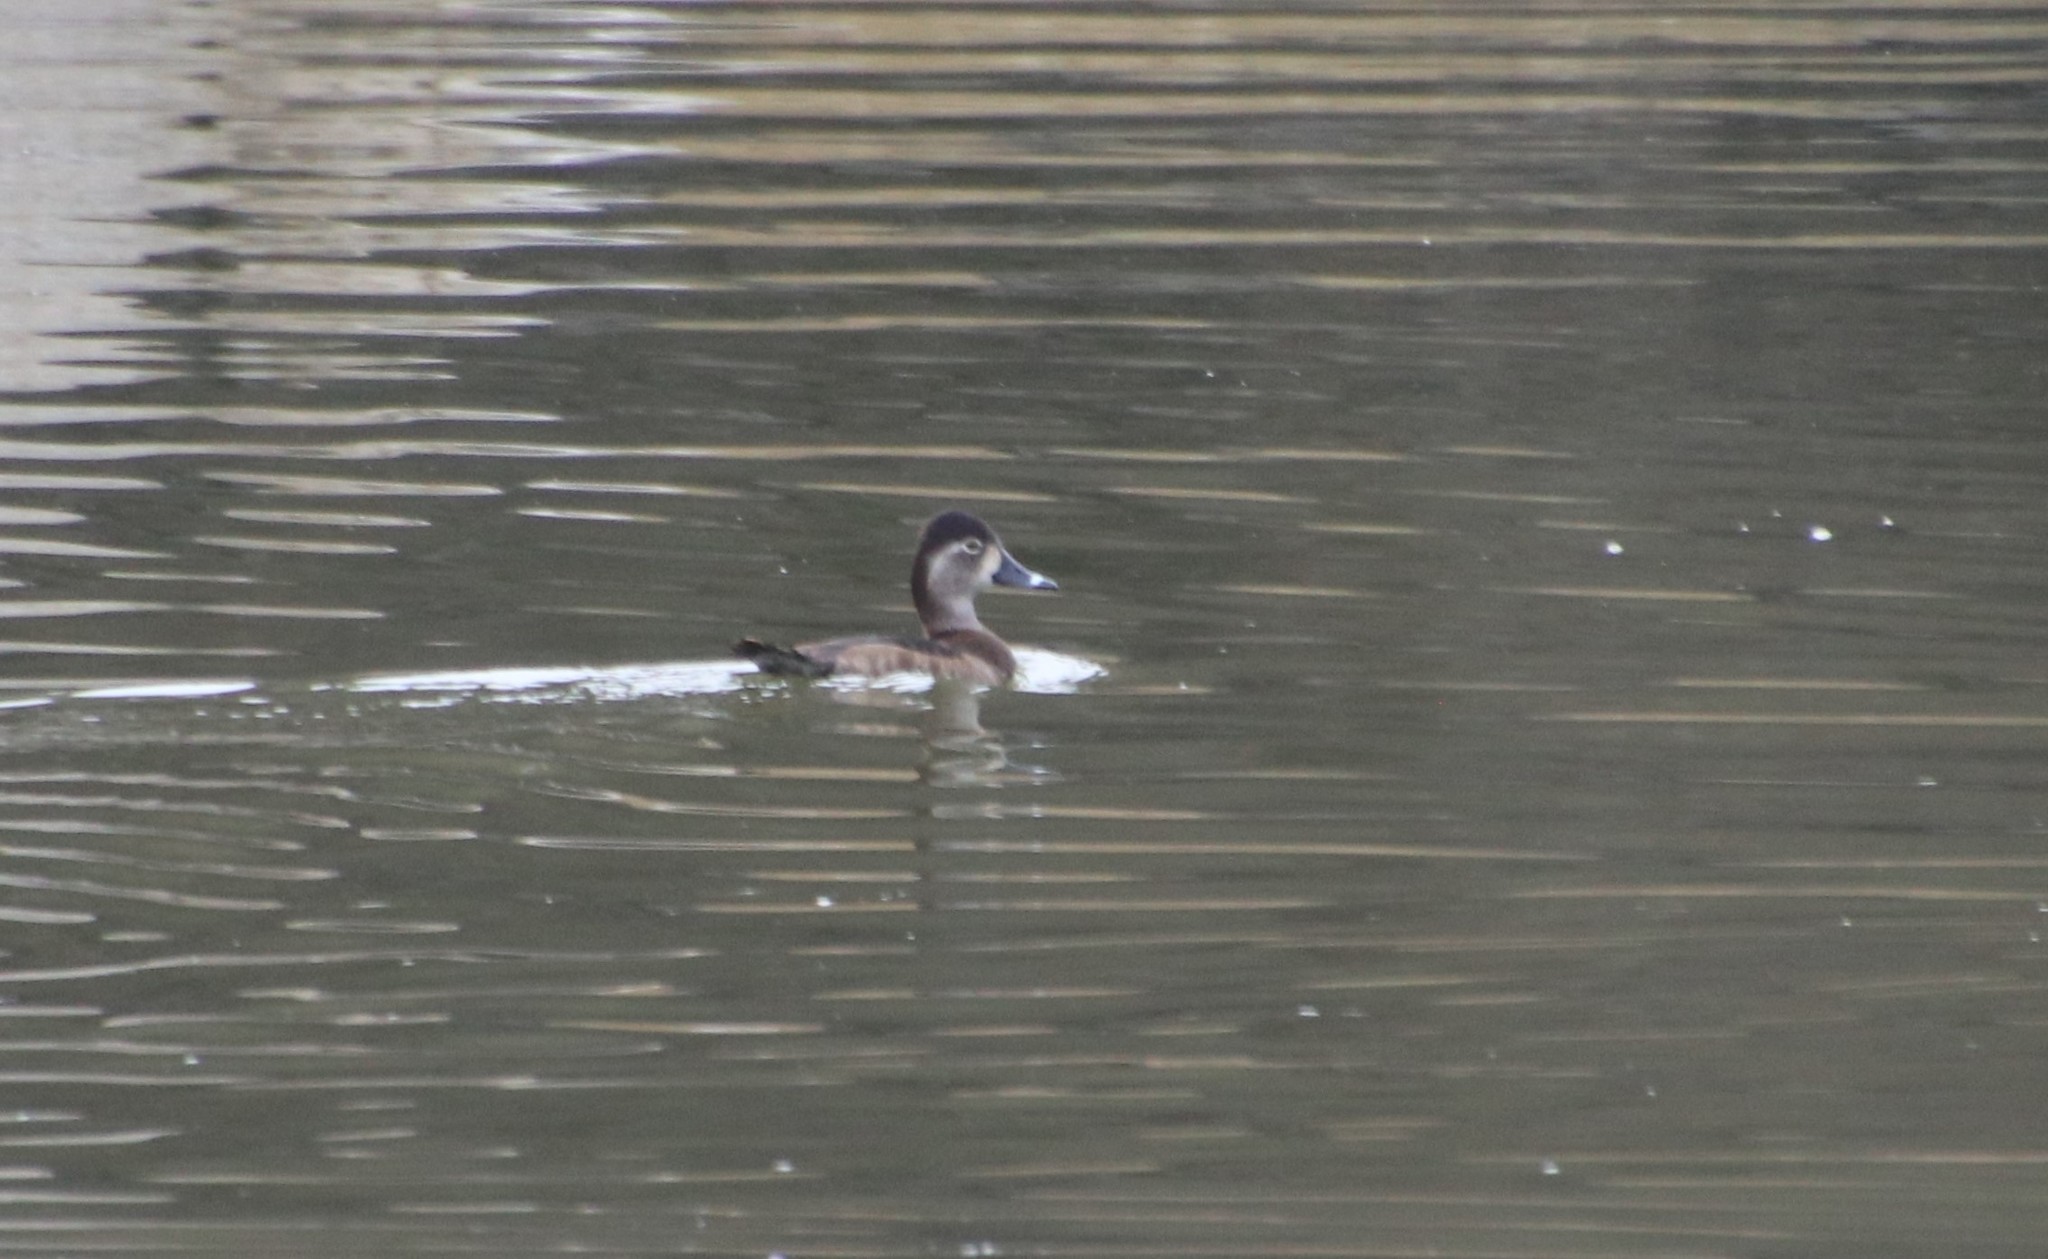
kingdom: Animalia
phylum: Chordata
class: Aves
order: Anseriformes
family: Anatidae
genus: Aythya
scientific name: Aythya collaris
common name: Ring-necked duck
